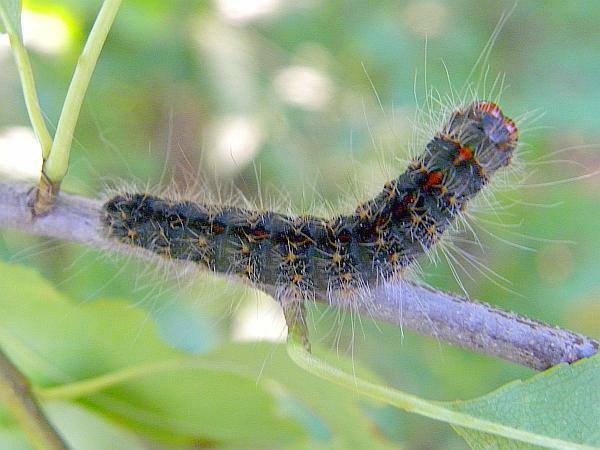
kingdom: Animalia
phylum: Arthropoda
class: Insecta
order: Lepidoptera
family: Noctuidae
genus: Acronicta
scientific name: Acronicta hasta
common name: Cherry dagger
